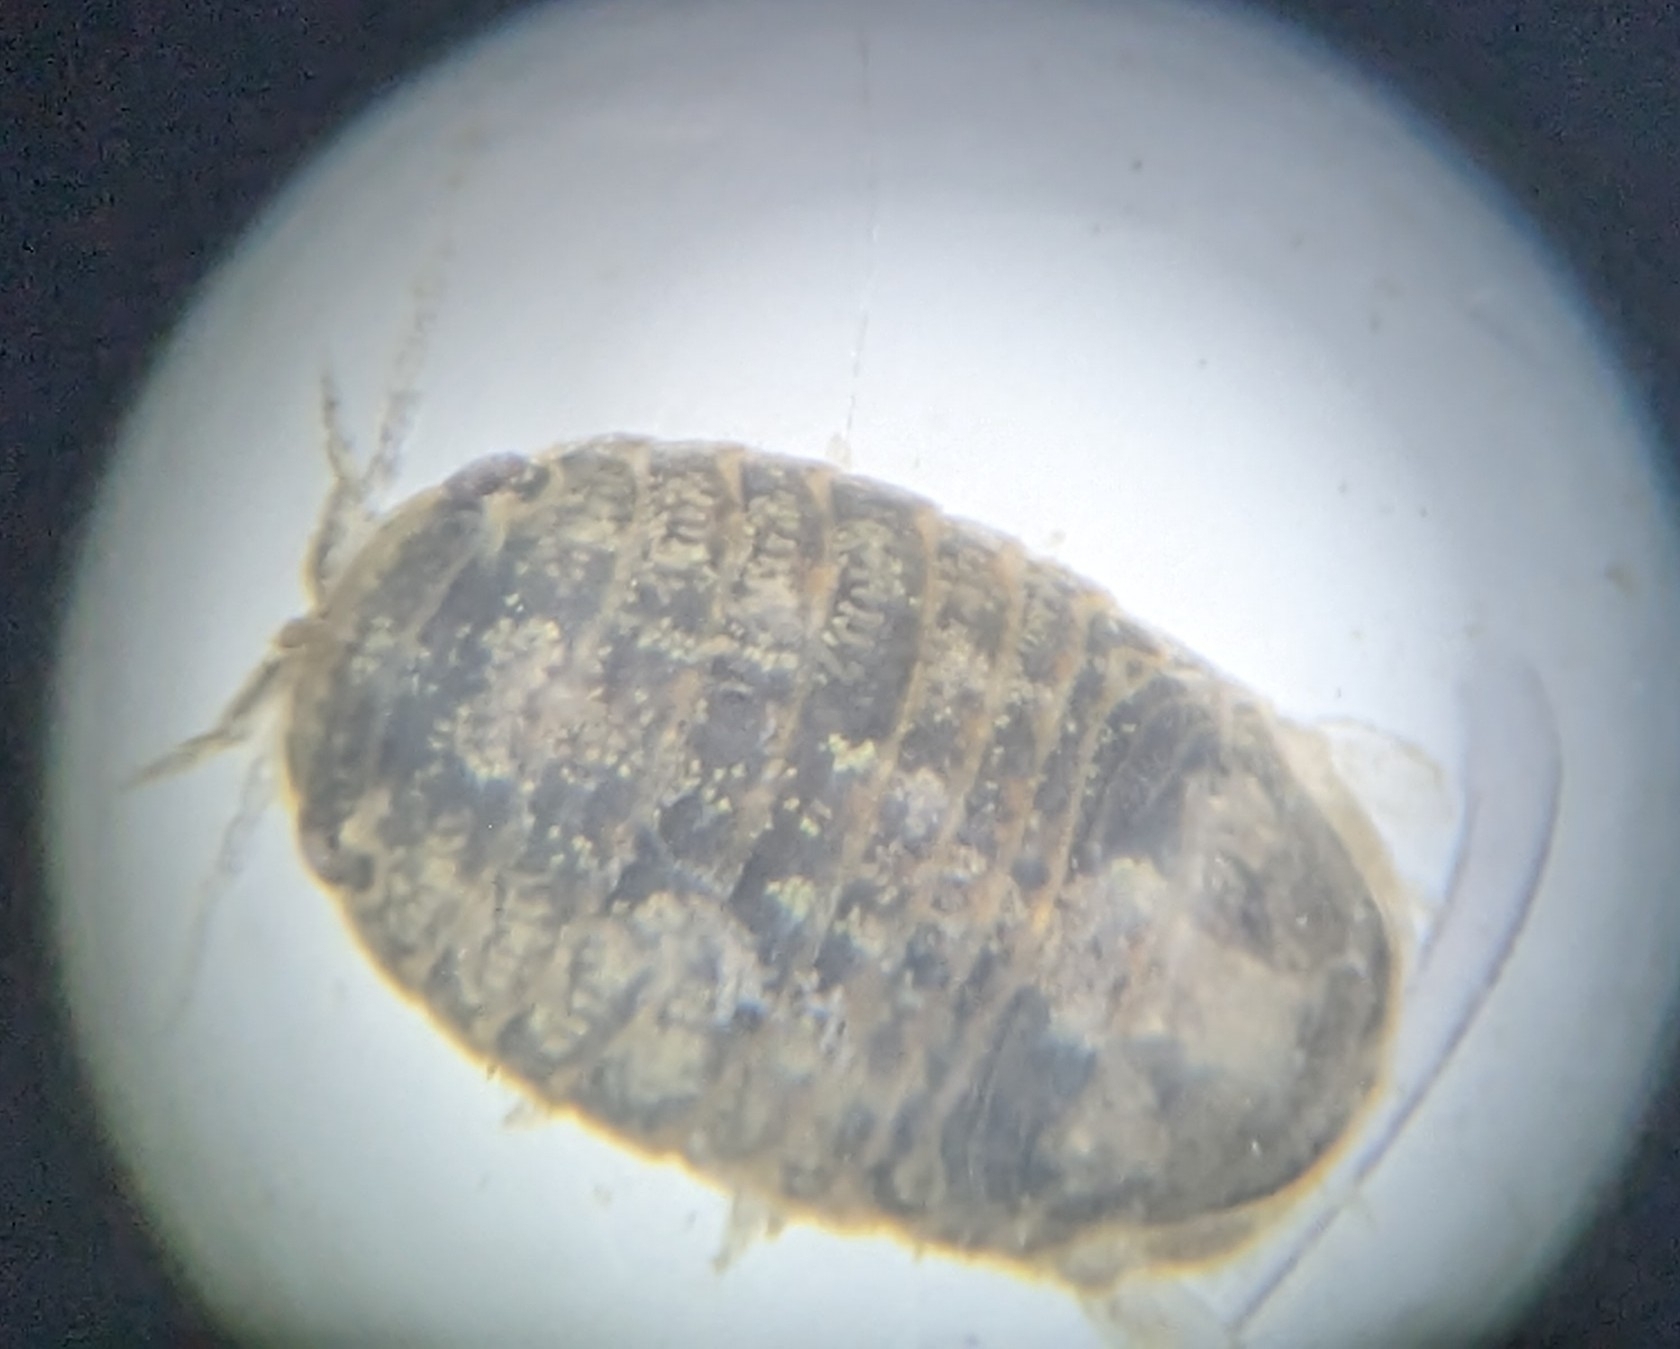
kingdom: Animalia
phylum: Arthropoda
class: Malacostraca
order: Isopoda
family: Sphaeromatidae
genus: Exosphaeroma
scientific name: Exosphaeroma diminutum
